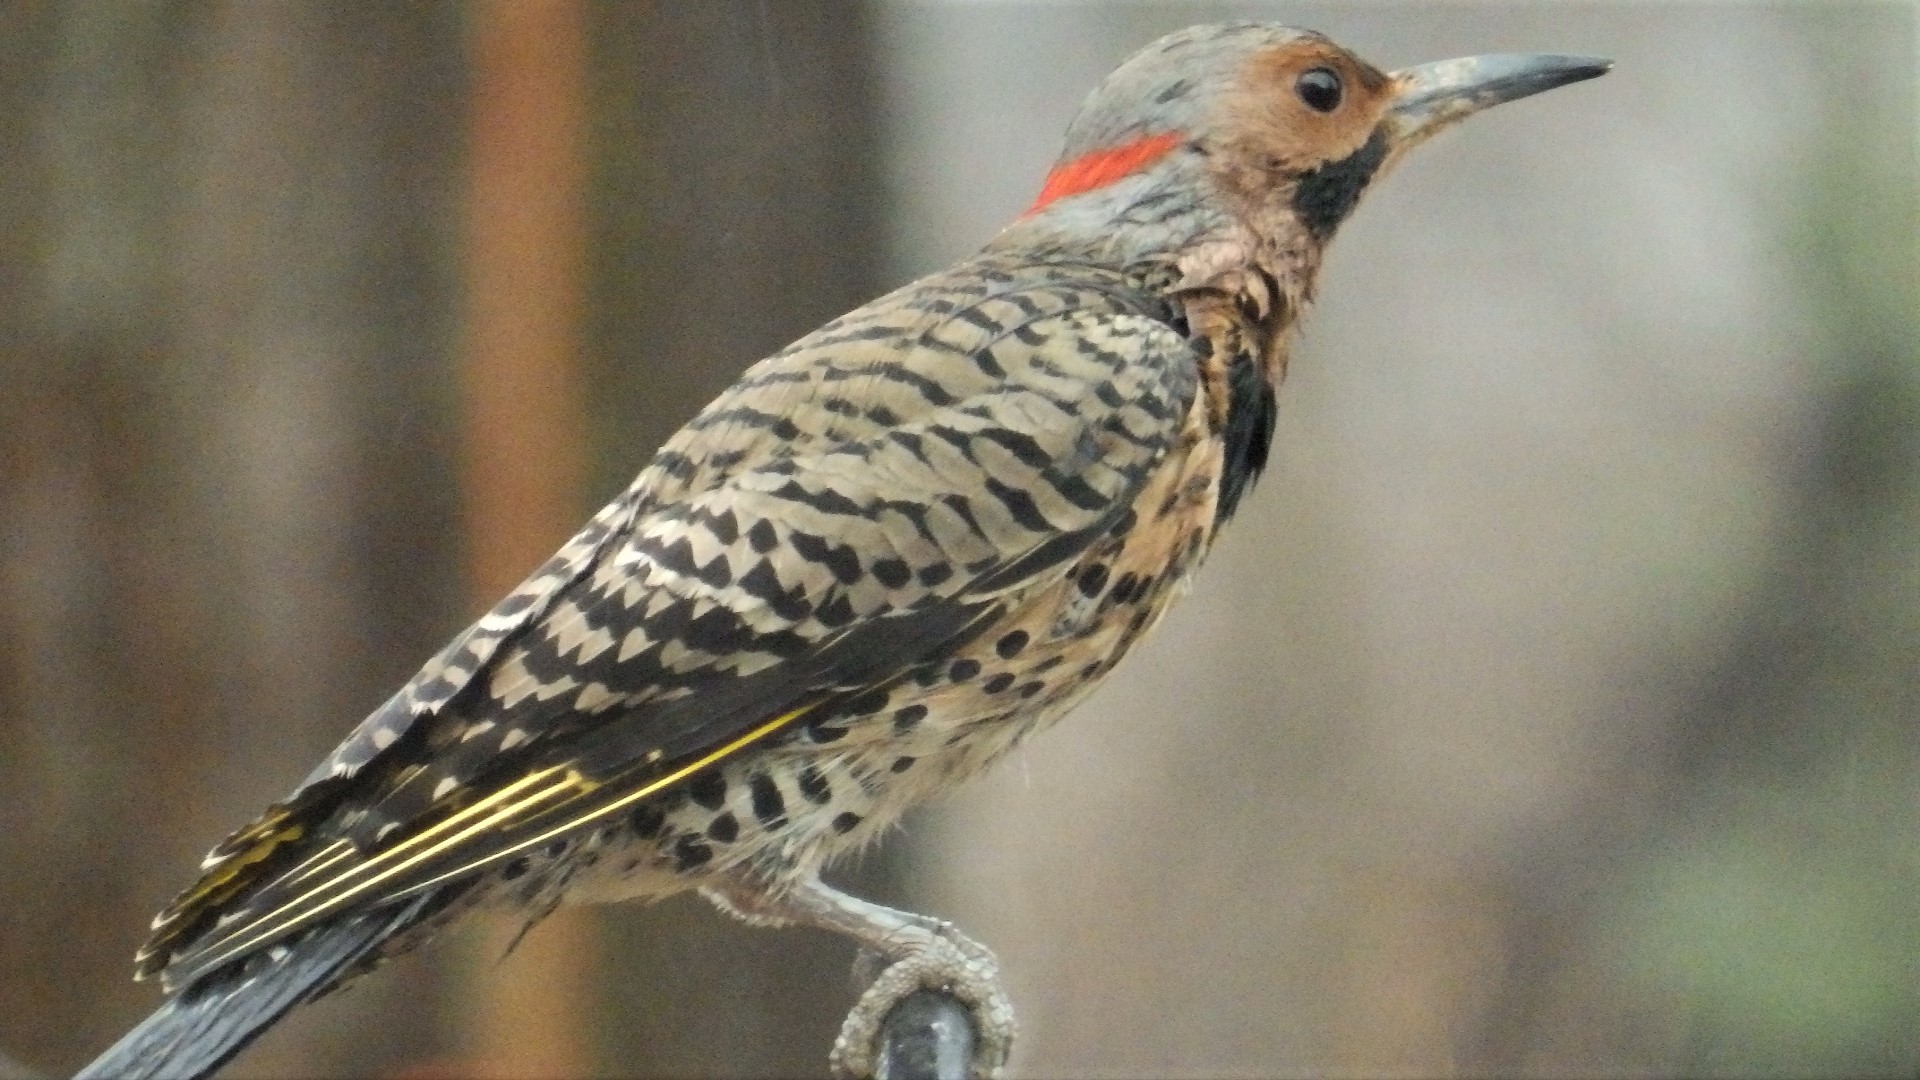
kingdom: Animalia
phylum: Chordata
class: Aves
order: Piciformes
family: Picidae
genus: Colaptes
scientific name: Colaptes auratus
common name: Northern flicker
